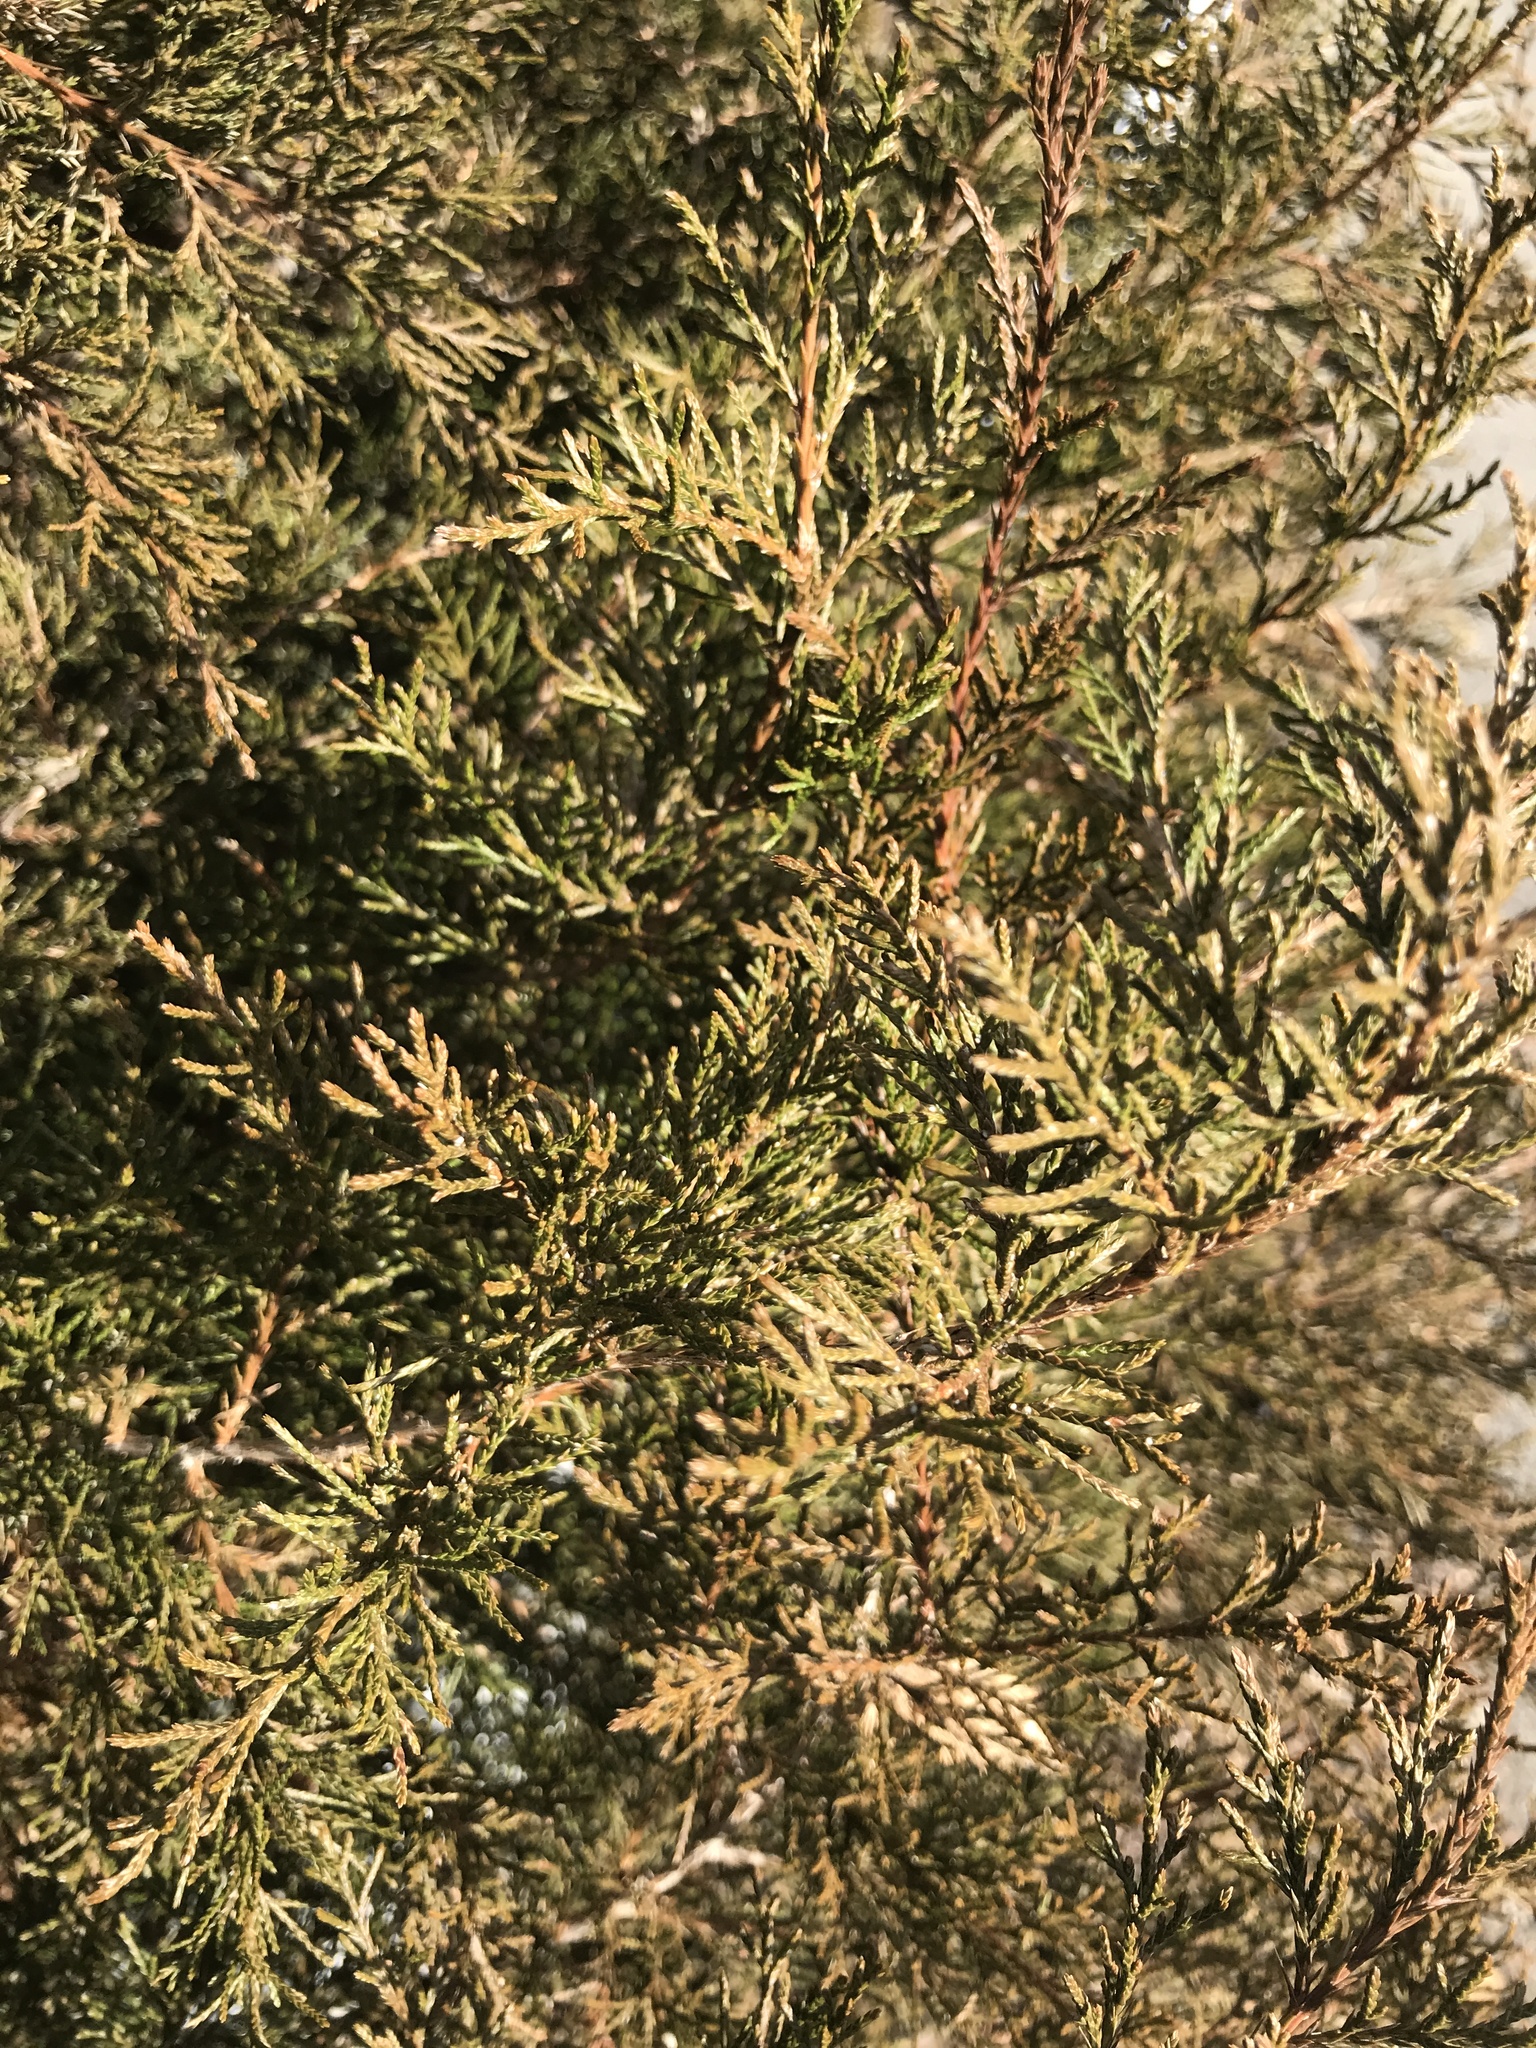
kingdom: Plantae
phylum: Tracheophyta
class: Pinopsida
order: Pinales
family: Cupressaceae
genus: Juniperus
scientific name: Juniperus virginiana
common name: Red juniper
